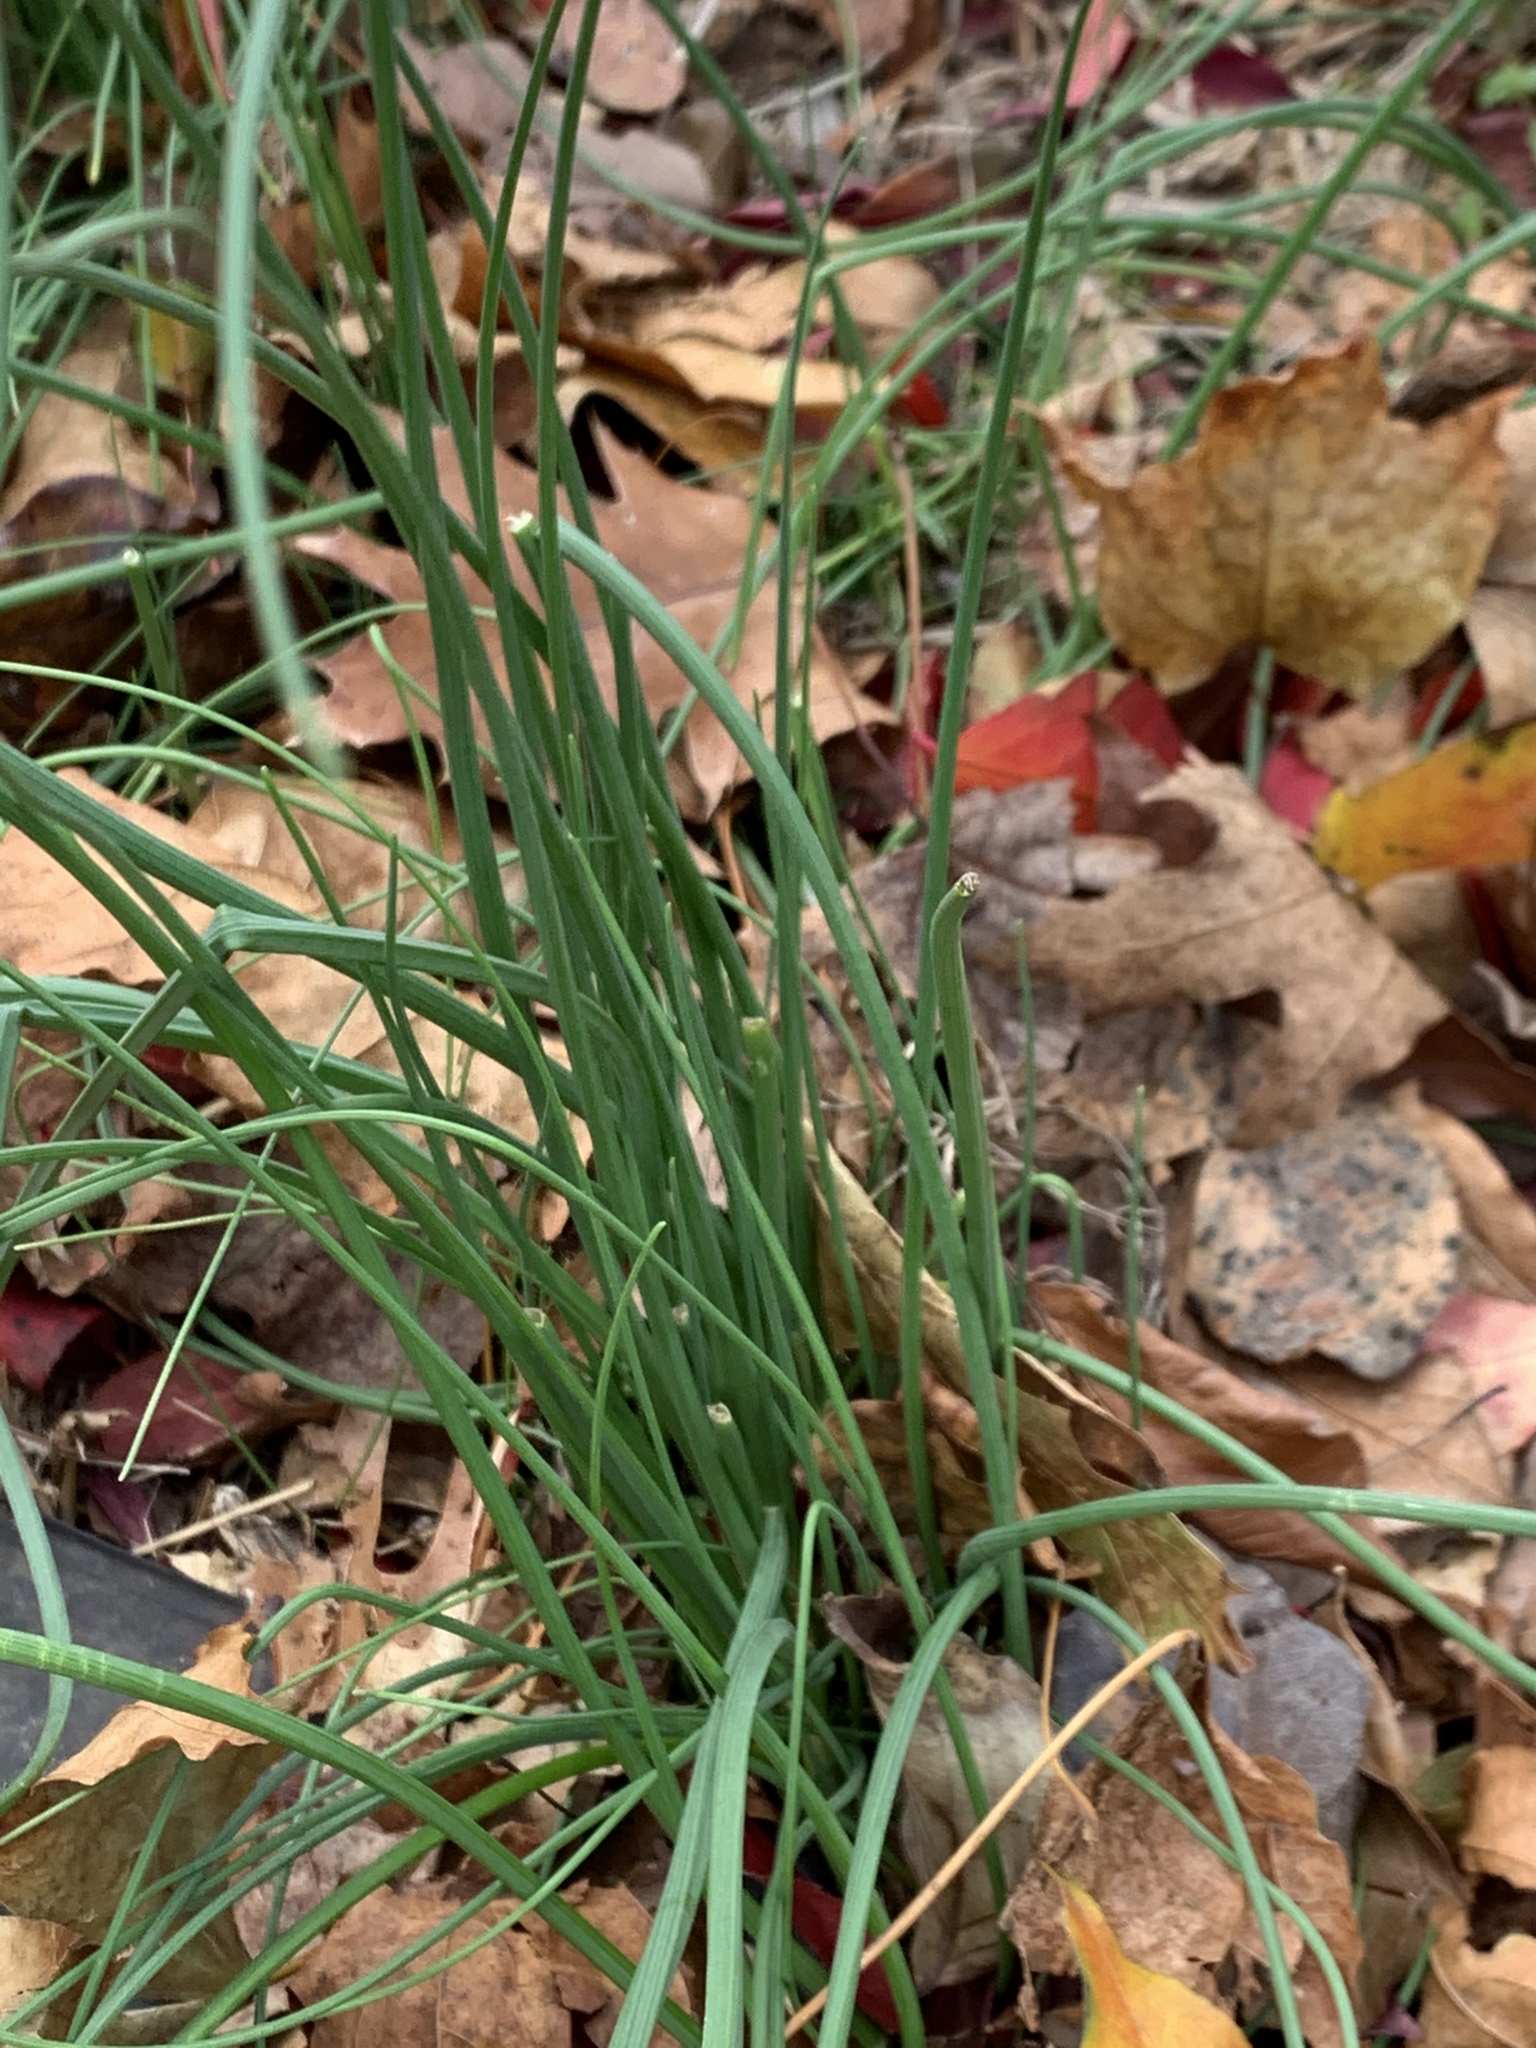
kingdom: Plantae
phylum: Tracheophyta
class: Liliopsida
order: Asparagales
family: Amaryllidaceae
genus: Allium
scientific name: Allium vineale
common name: Crow garlic
